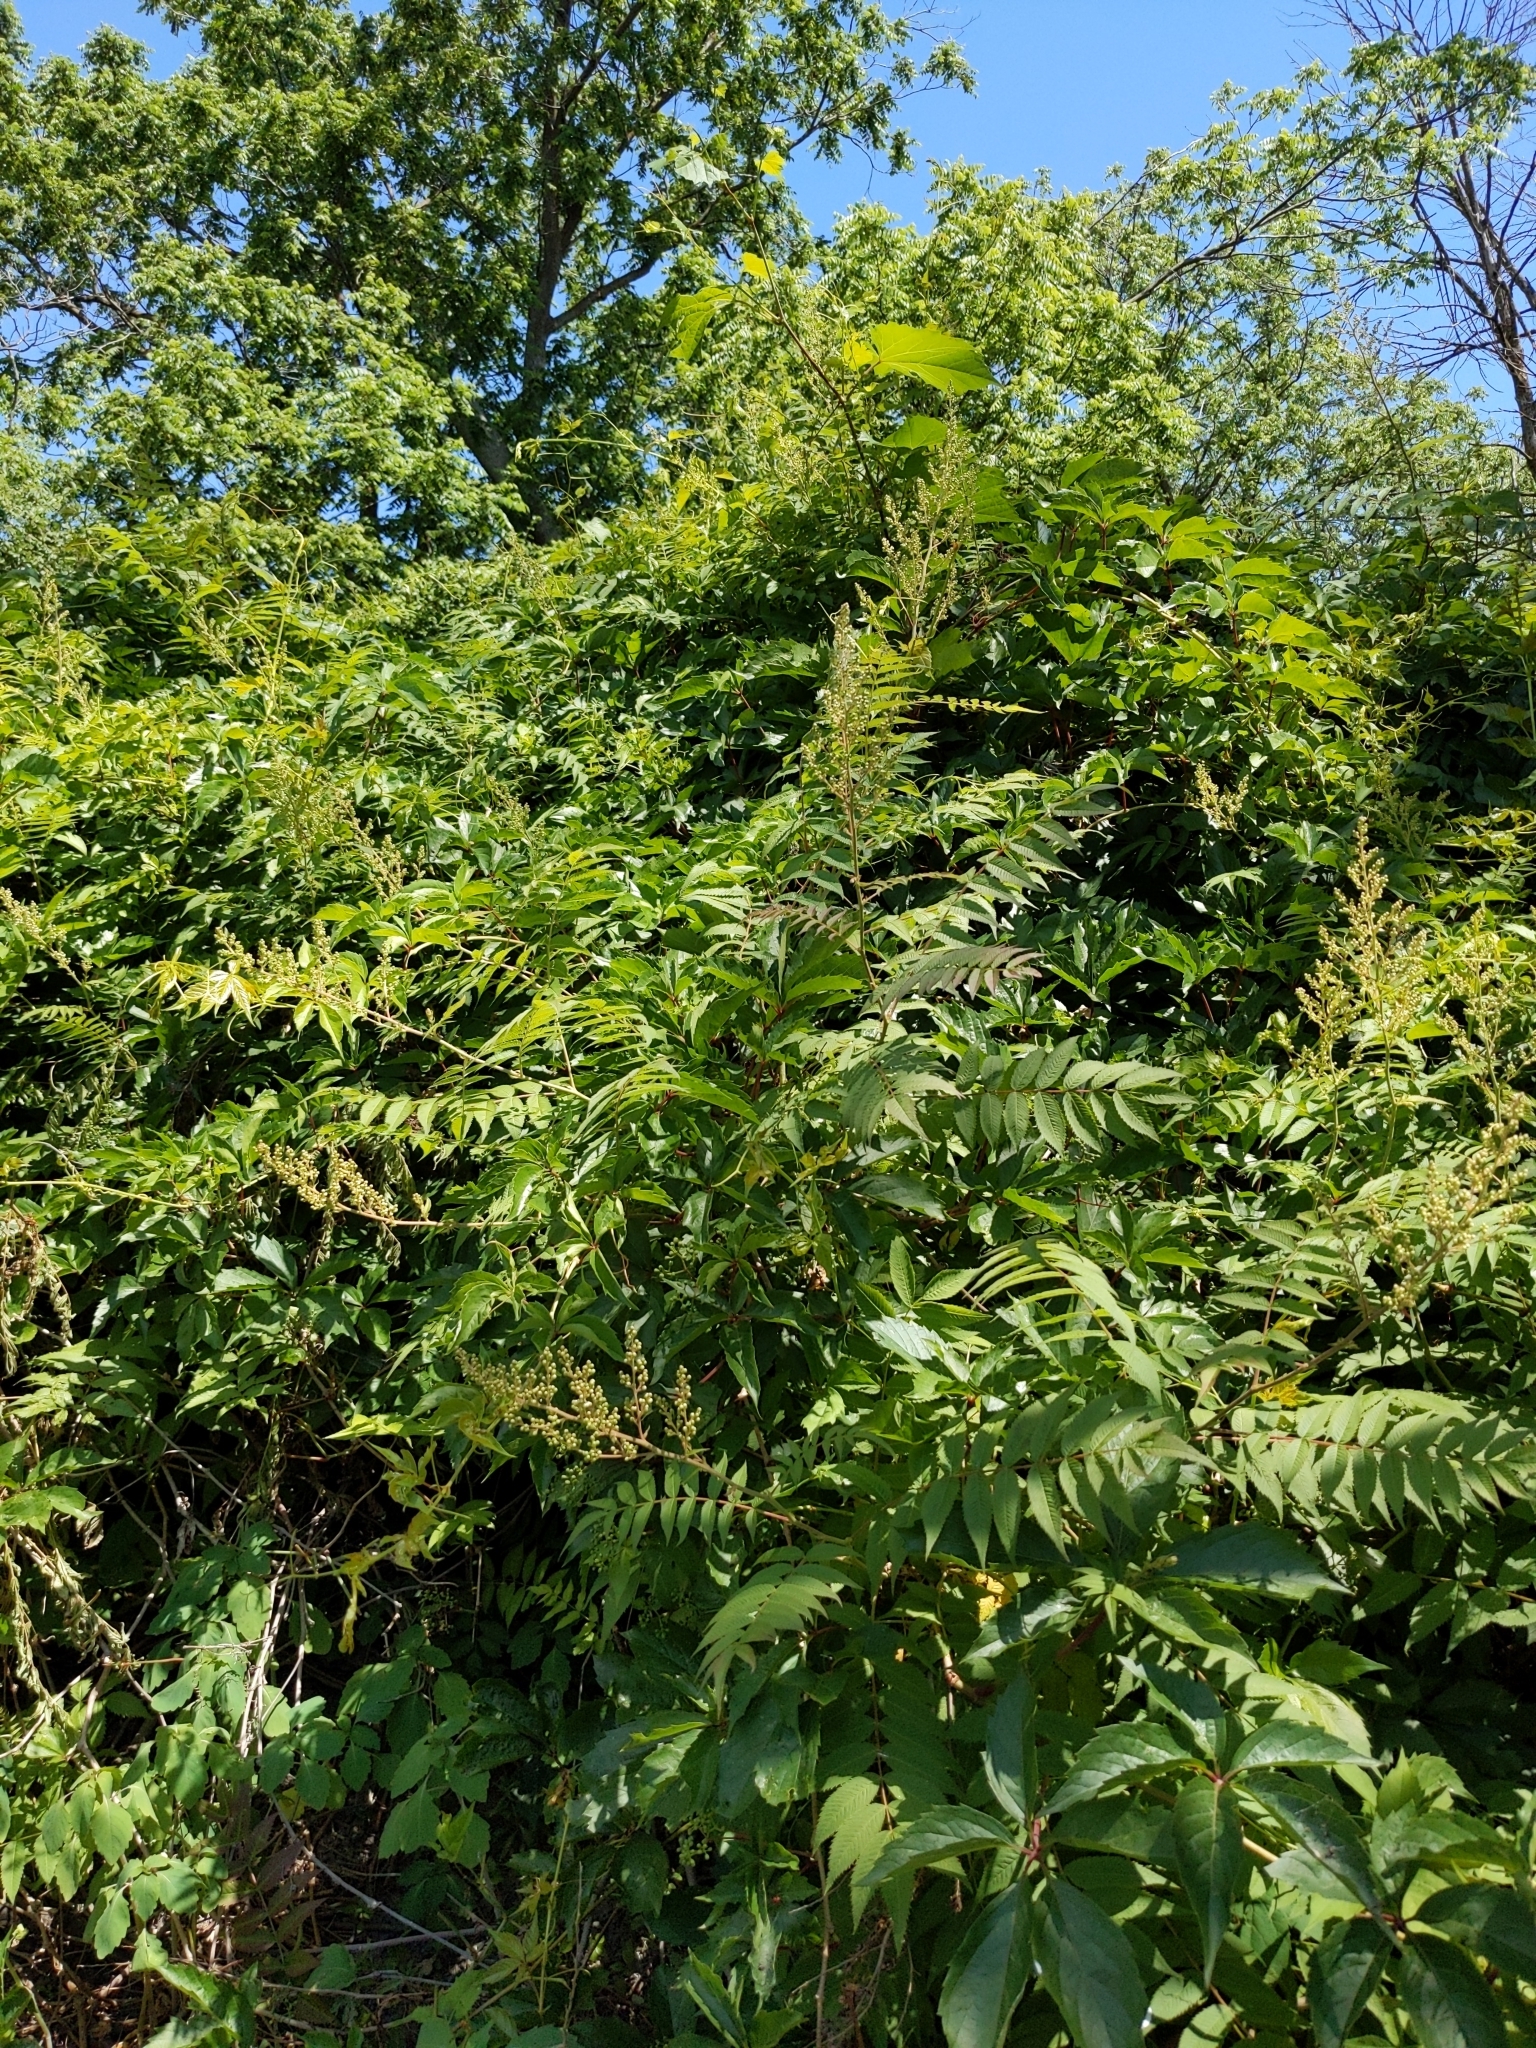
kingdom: Plantae
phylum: Tracheophyta
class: Magnoliopsida
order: Rosales
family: Rosaceae
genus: Sorbaria
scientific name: Sorbaria sorbifolia
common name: False spiraea
